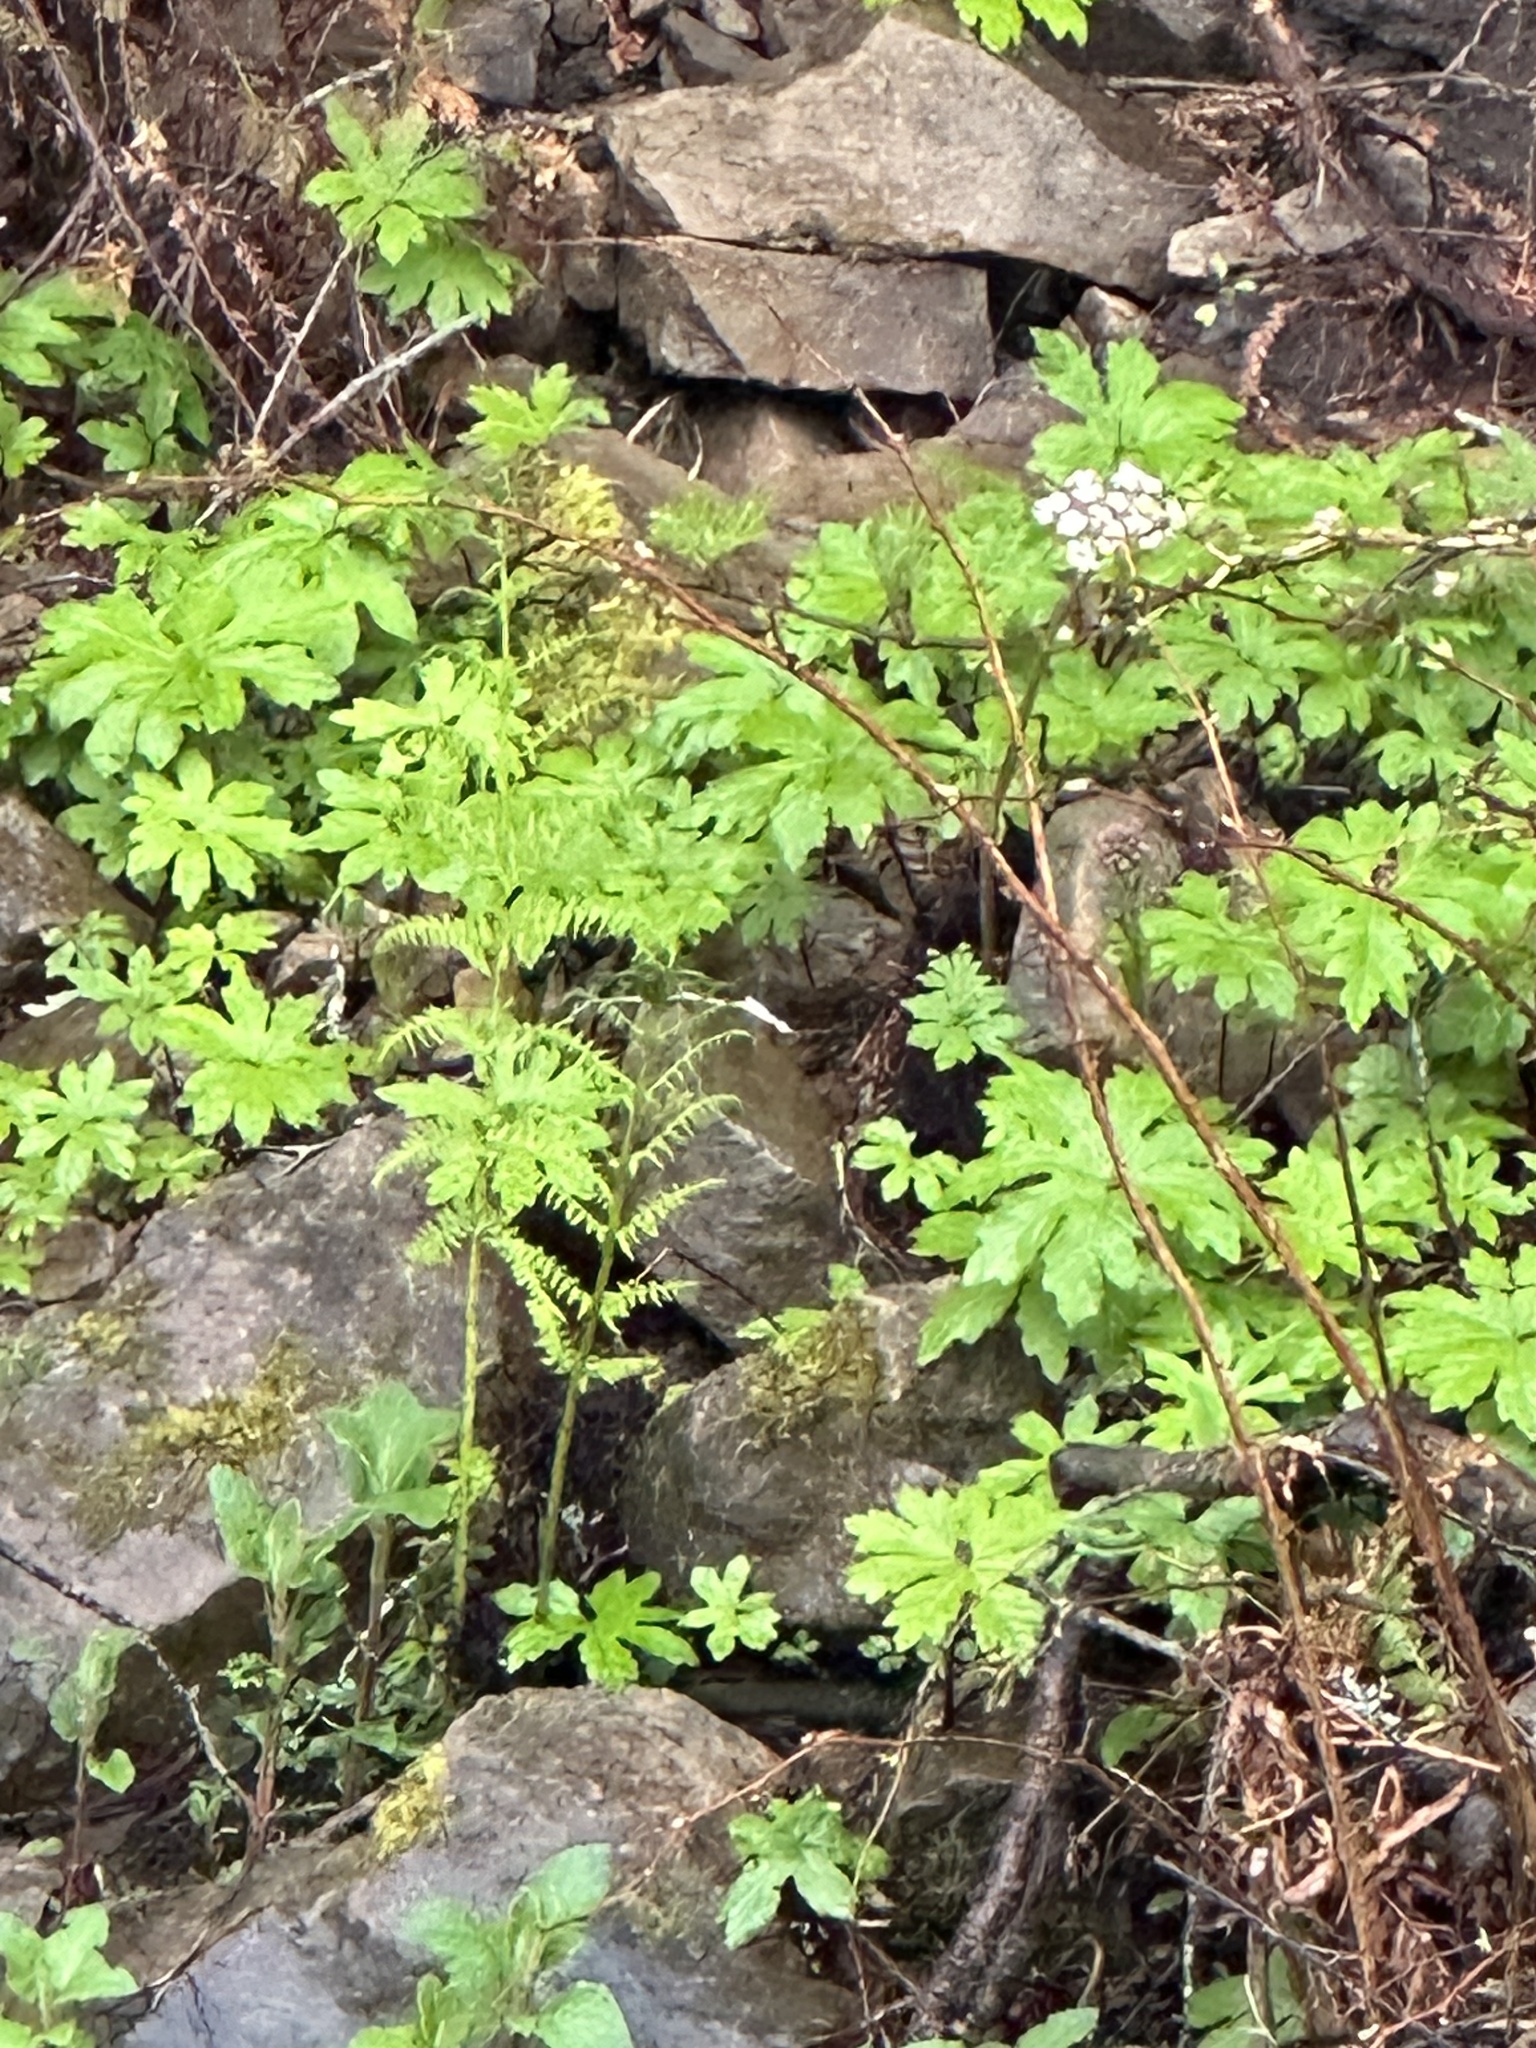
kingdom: Plantae
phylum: Tracheophyta
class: Magnoliopsida
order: Asterales
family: Asteraceae
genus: Petasites
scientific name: Petasites frigidus
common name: Arctic butterbur
